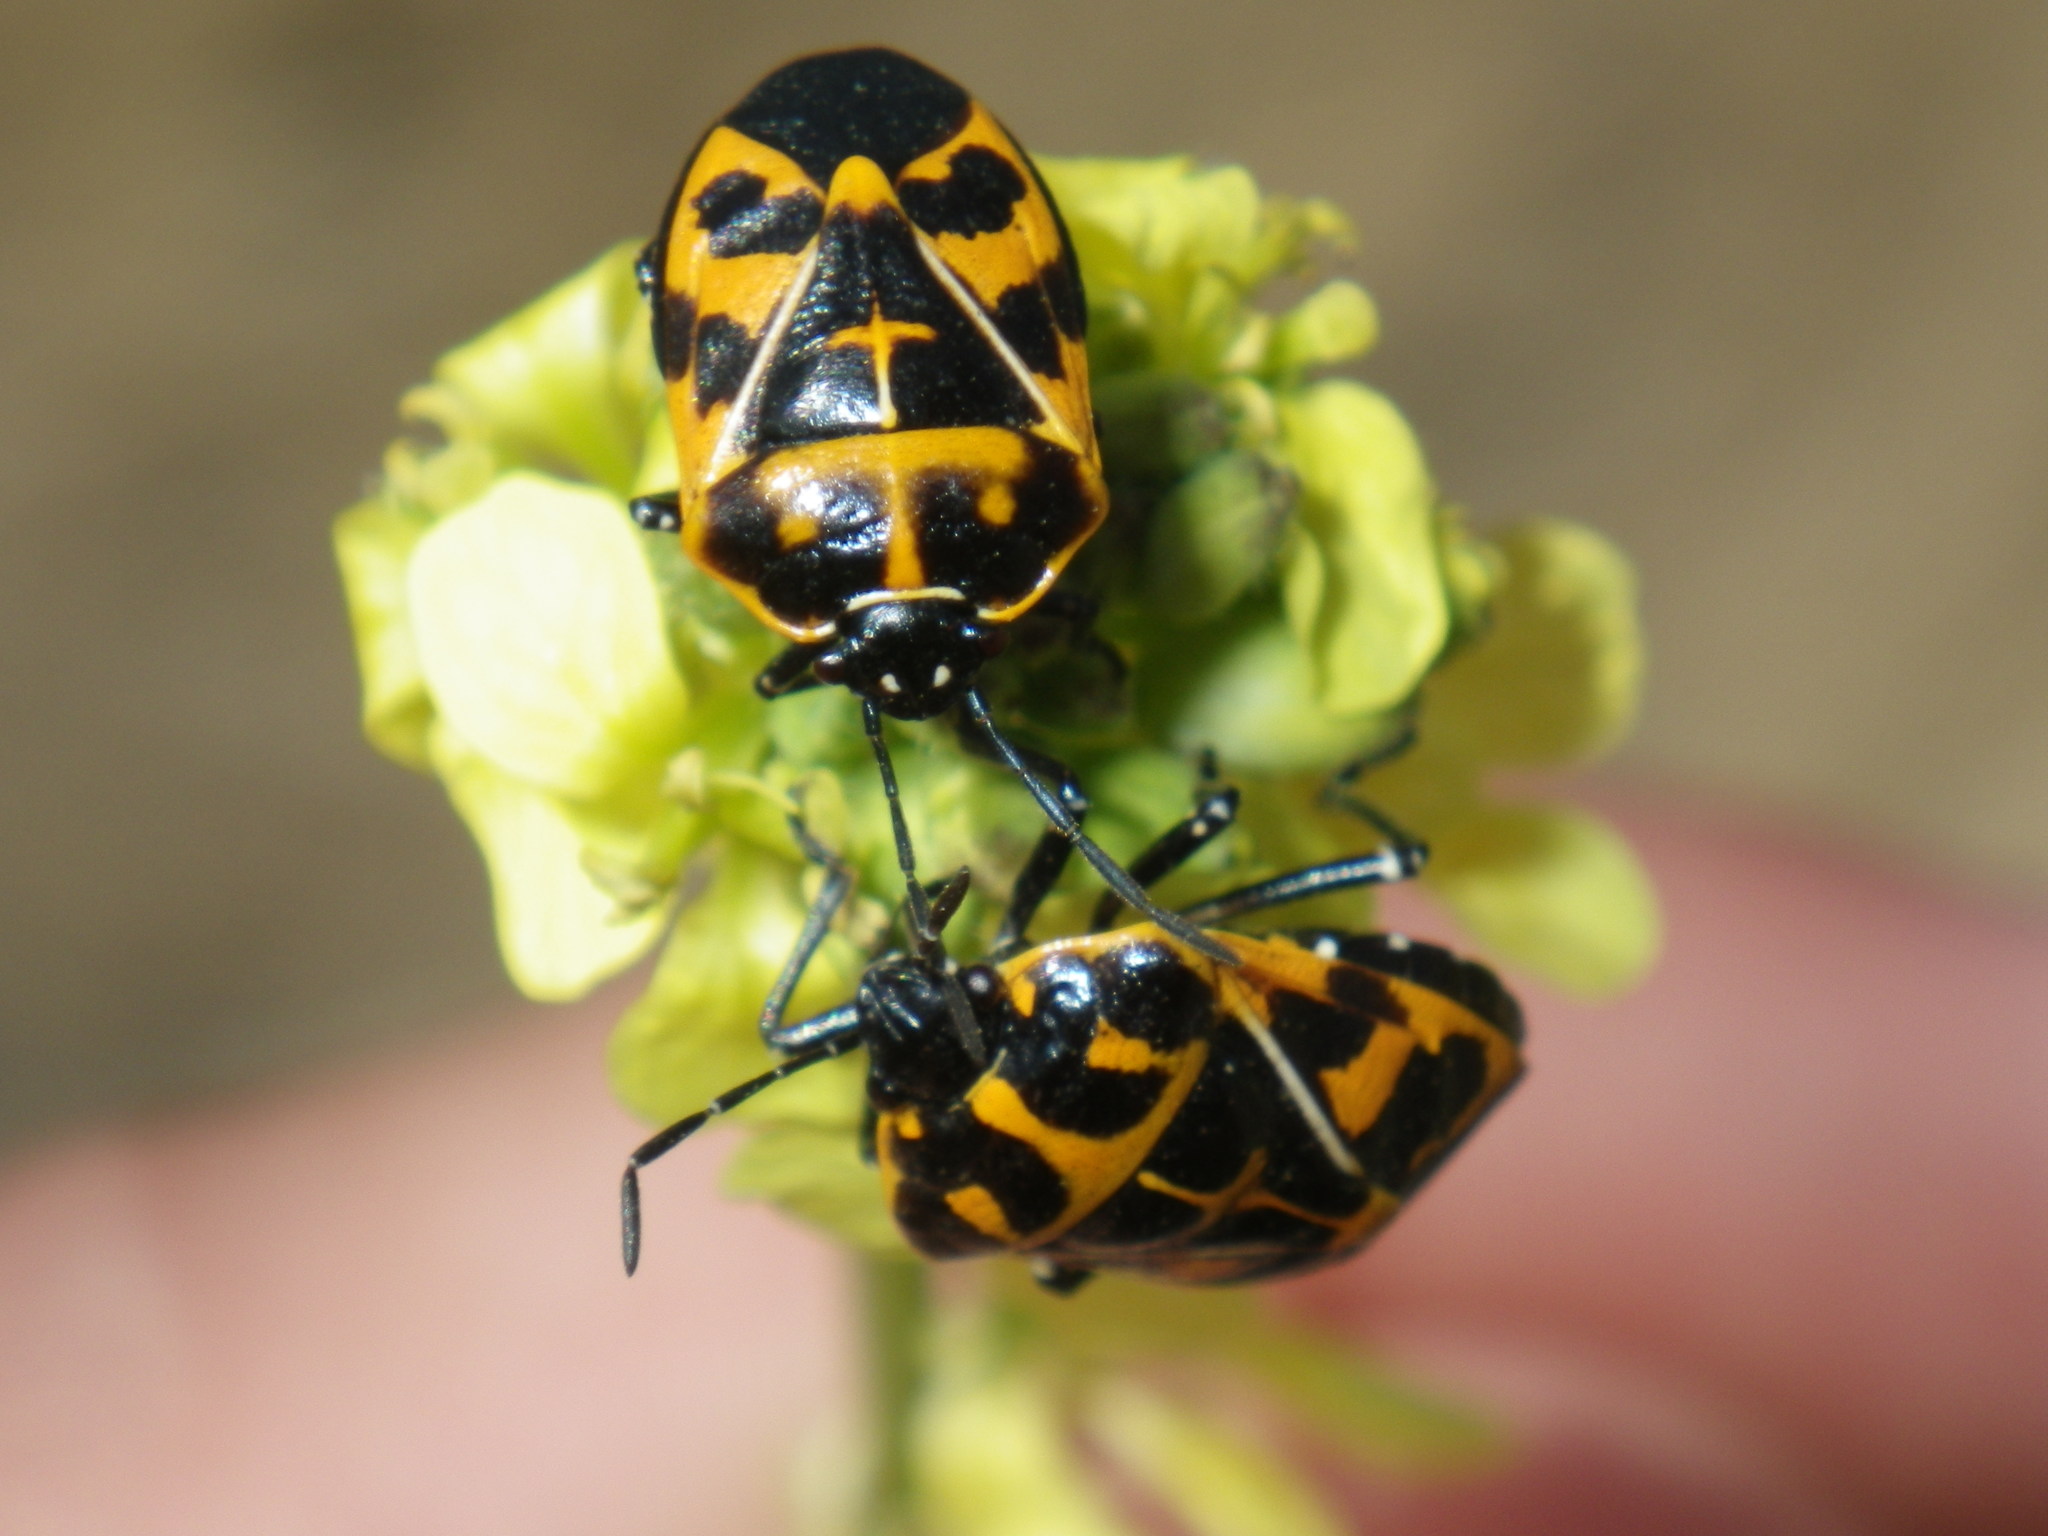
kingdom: Animalia
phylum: Arthropoda
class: Insecta
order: Hemiptera
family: Pentatomidae
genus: Murgantia
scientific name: Murgantia histrionica
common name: Harlequin bug
